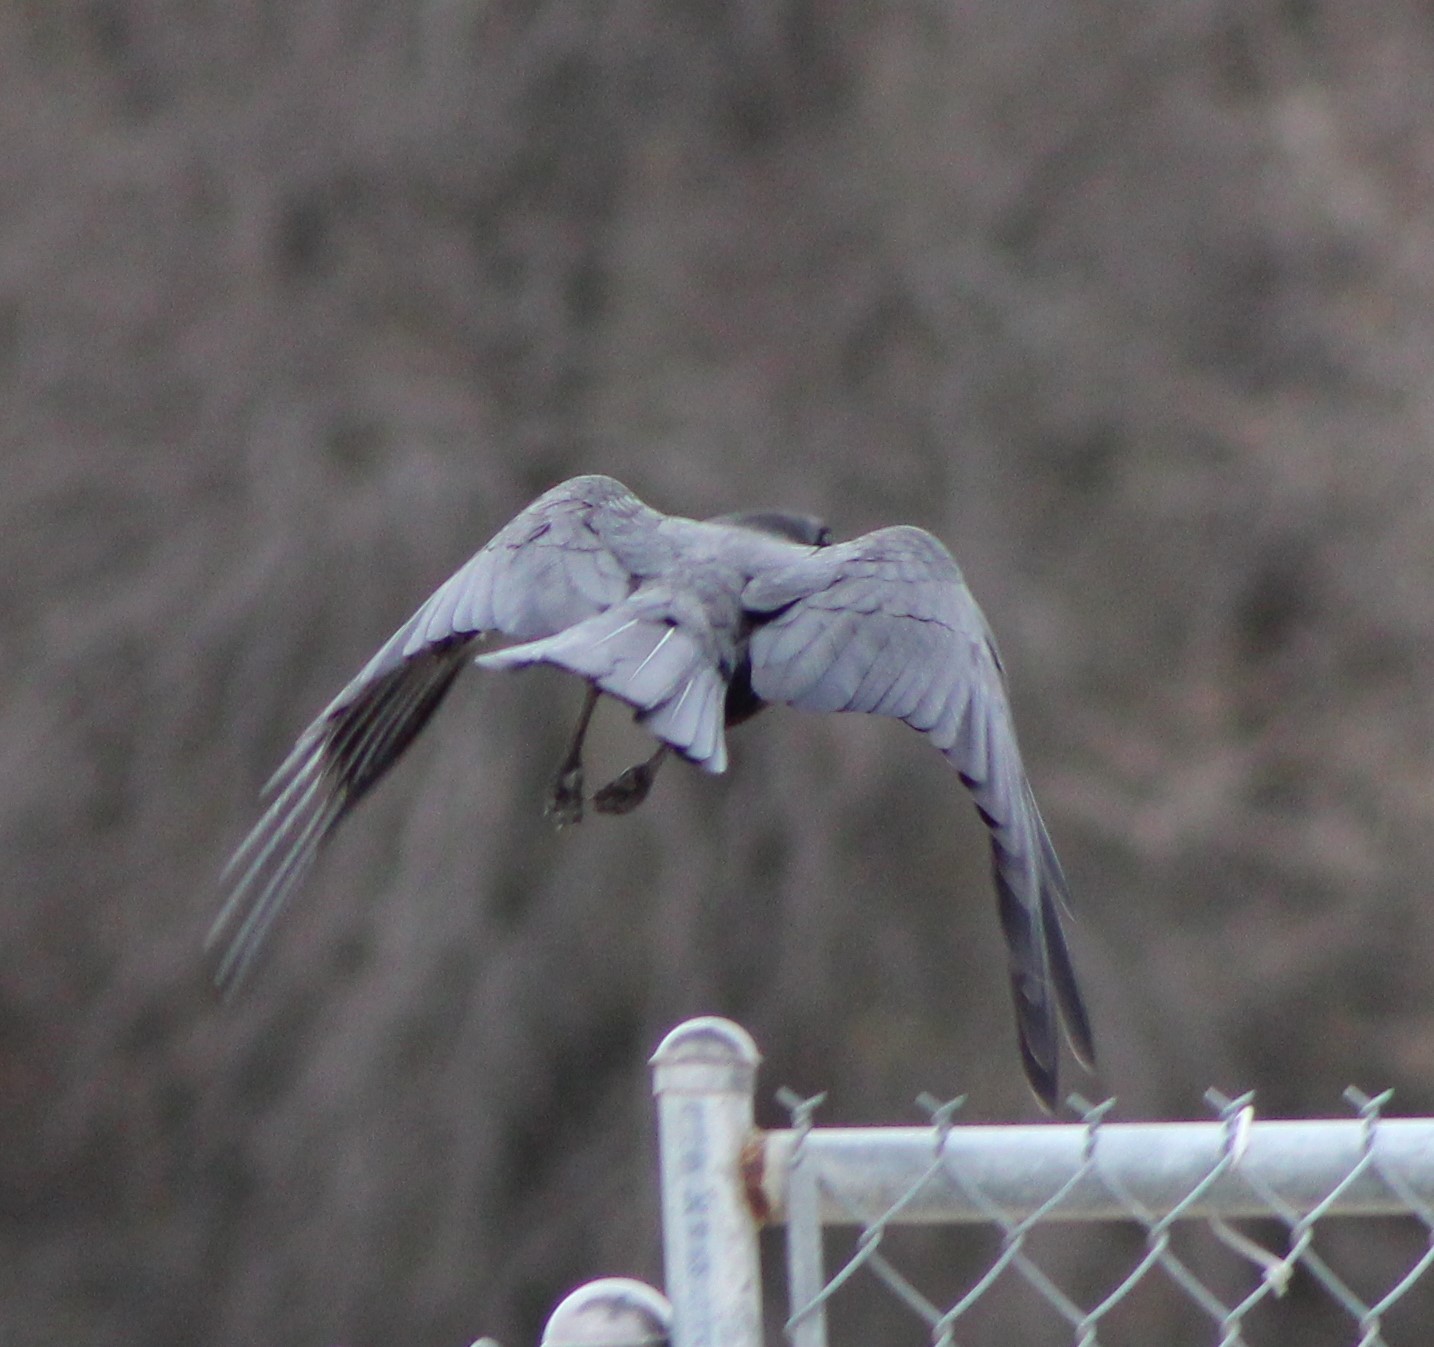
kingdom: Animalia
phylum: Chordata
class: Aves
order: Passeriformes
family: Corvidae
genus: Corvus
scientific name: Corvus brachyrhynchos
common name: American crow
